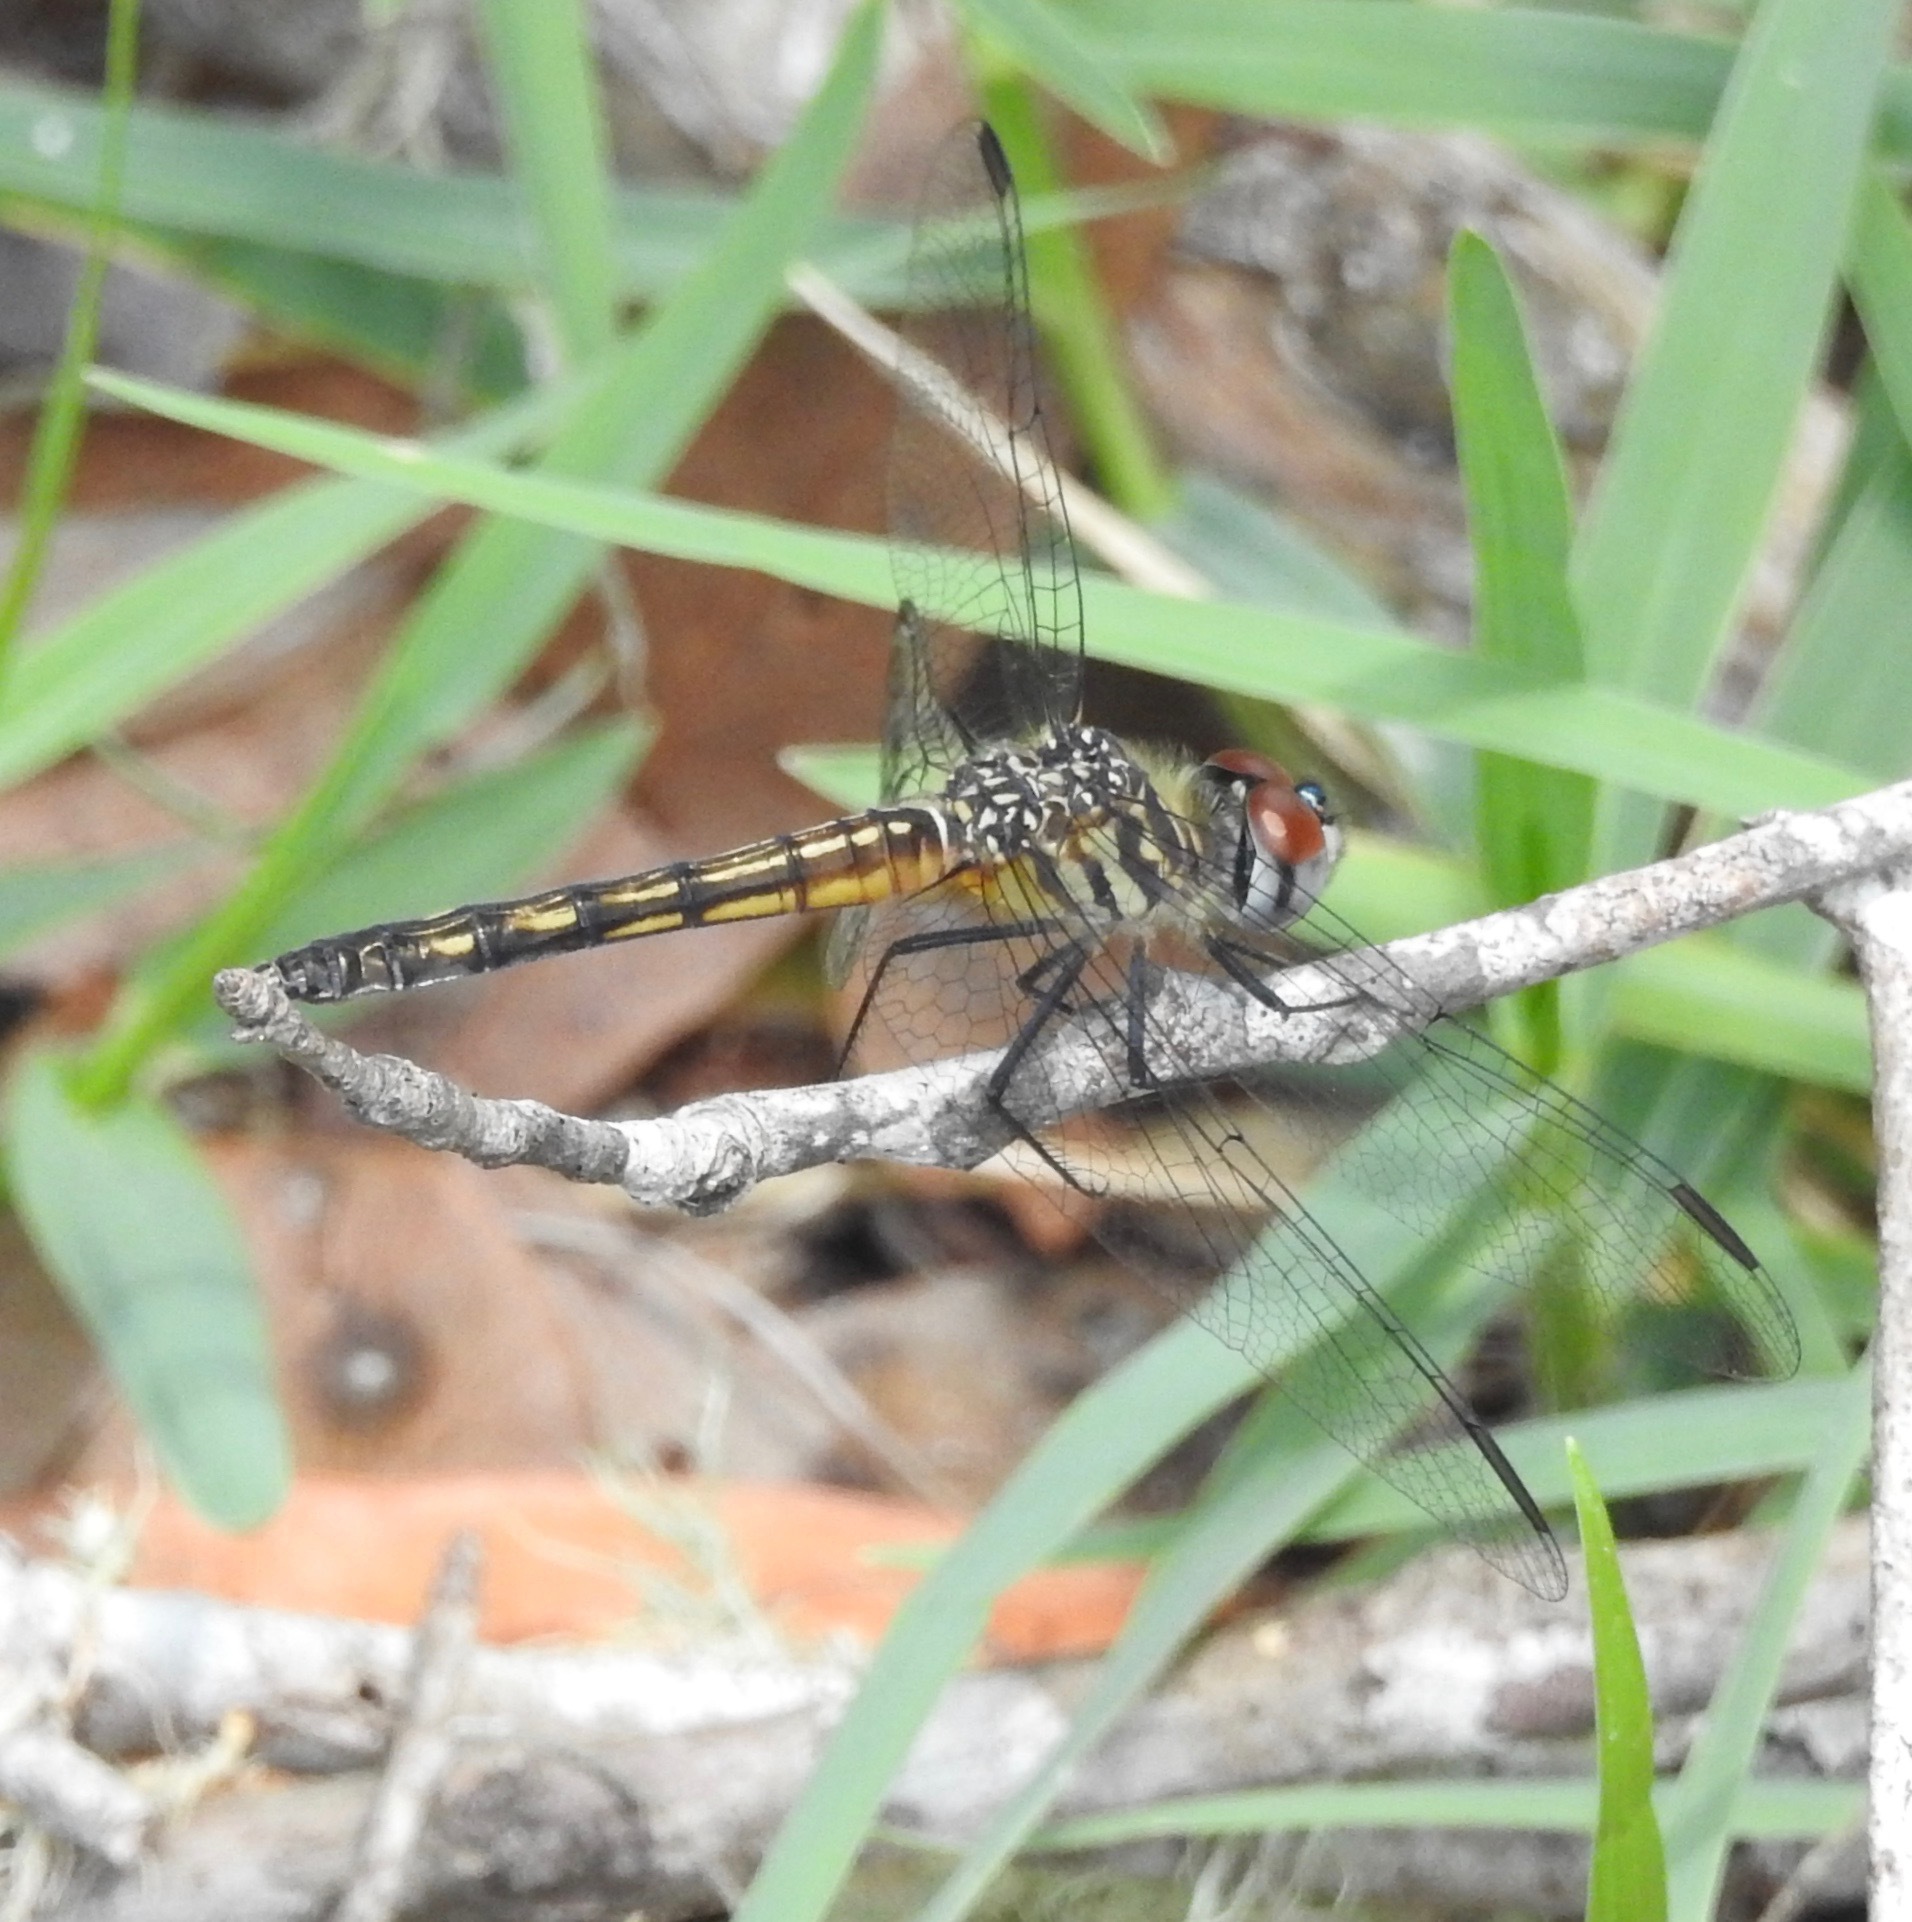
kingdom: Animalia
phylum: Arthropoda
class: Insecta
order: Odonata
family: Libellulidae
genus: Pachydiplax
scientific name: Pachydiplax longipennis
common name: Blue dasher
